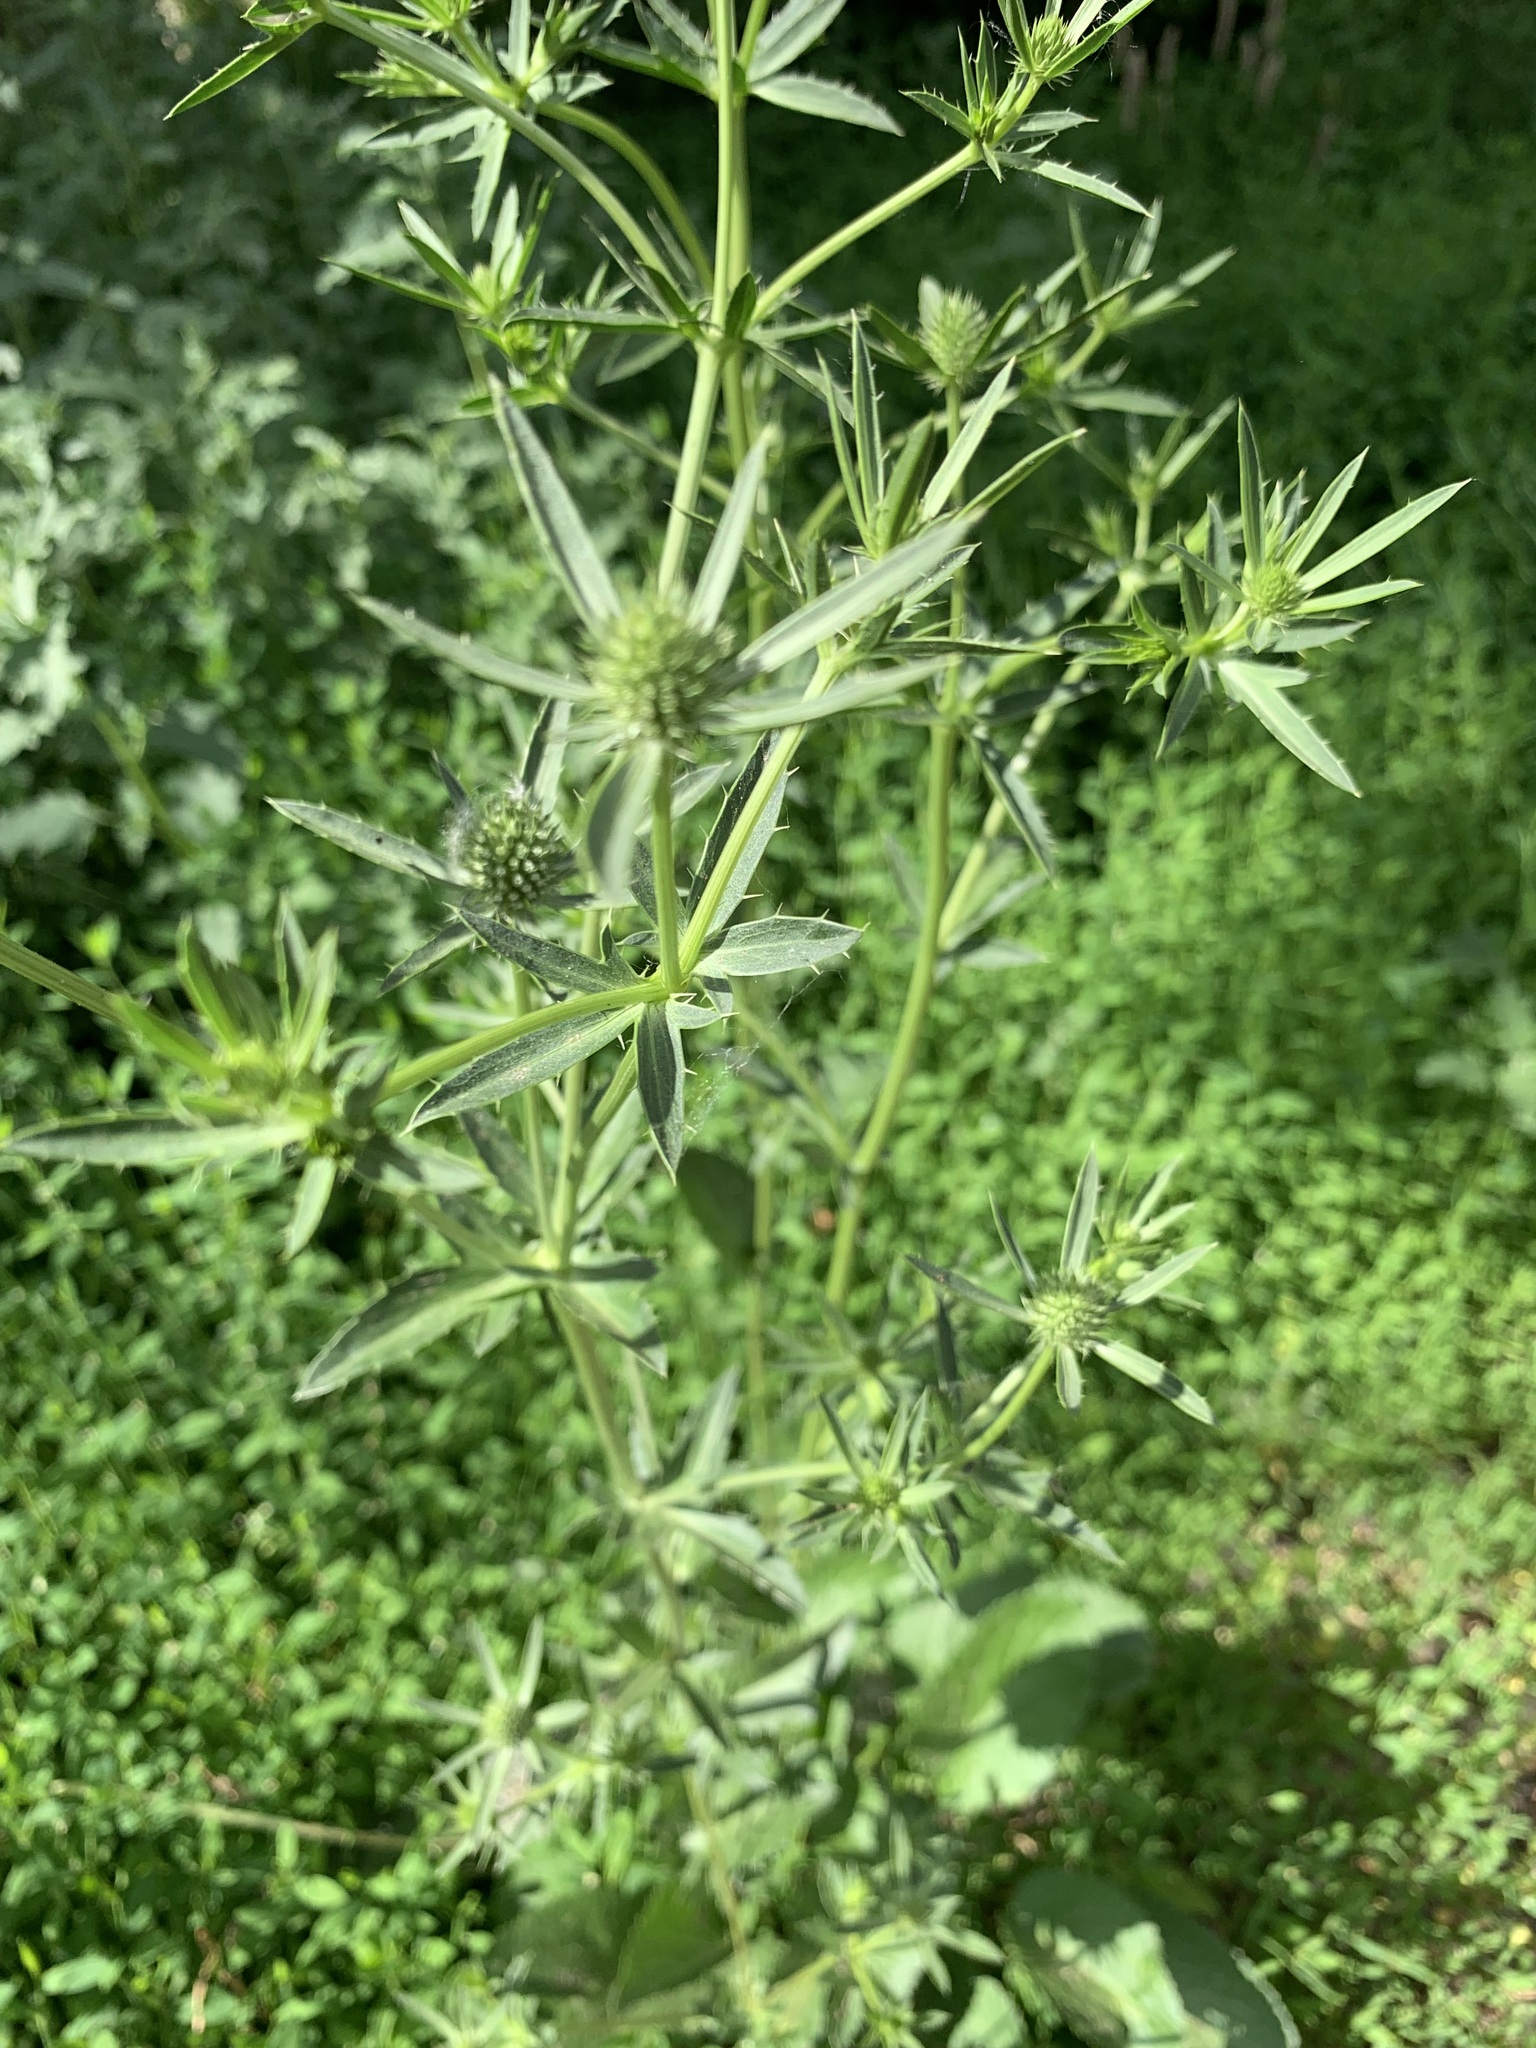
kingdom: Plantae
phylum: Tracheophyta
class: Magnoliopsida
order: Apiales
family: Apiaceae
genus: Eryngium
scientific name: Eryngium planum
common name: Blue eryngo
